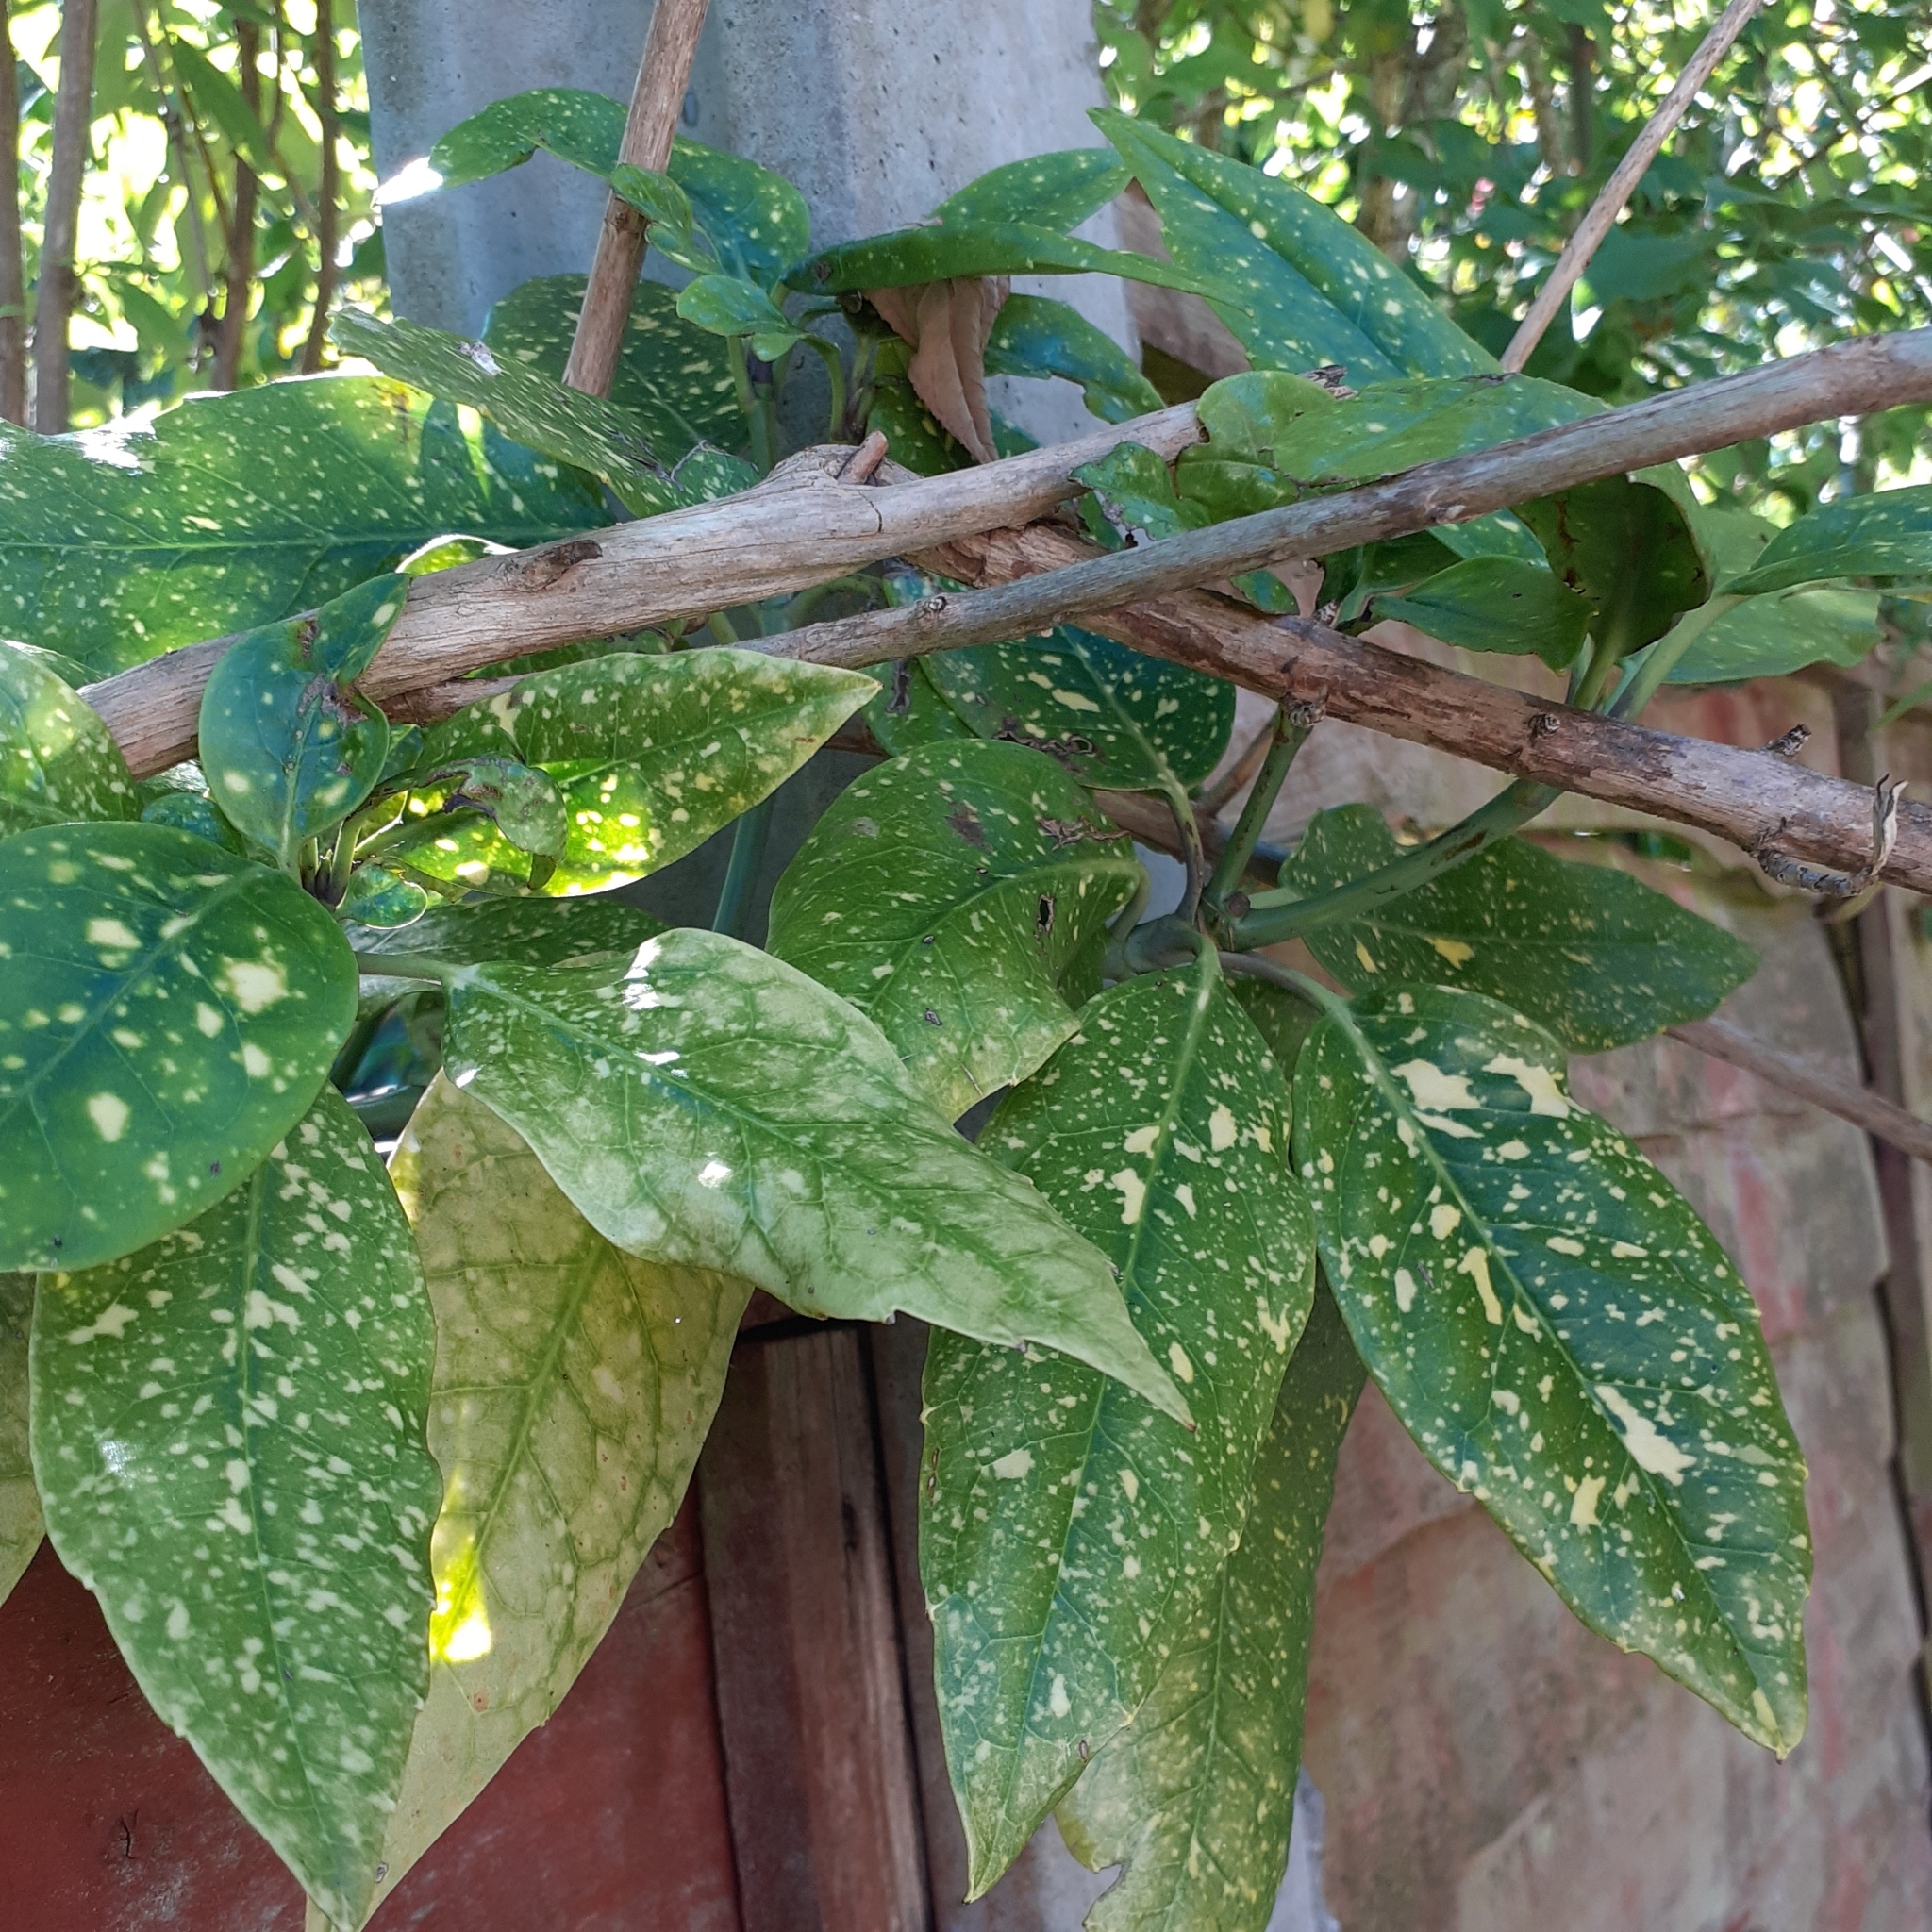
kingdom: Plantae
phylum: Tracheophyta
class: Magnoliopsida
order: Garryales
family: Garryaceae
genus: Aucuba
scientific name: Aucuba japonica
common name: Spotted-laurel
